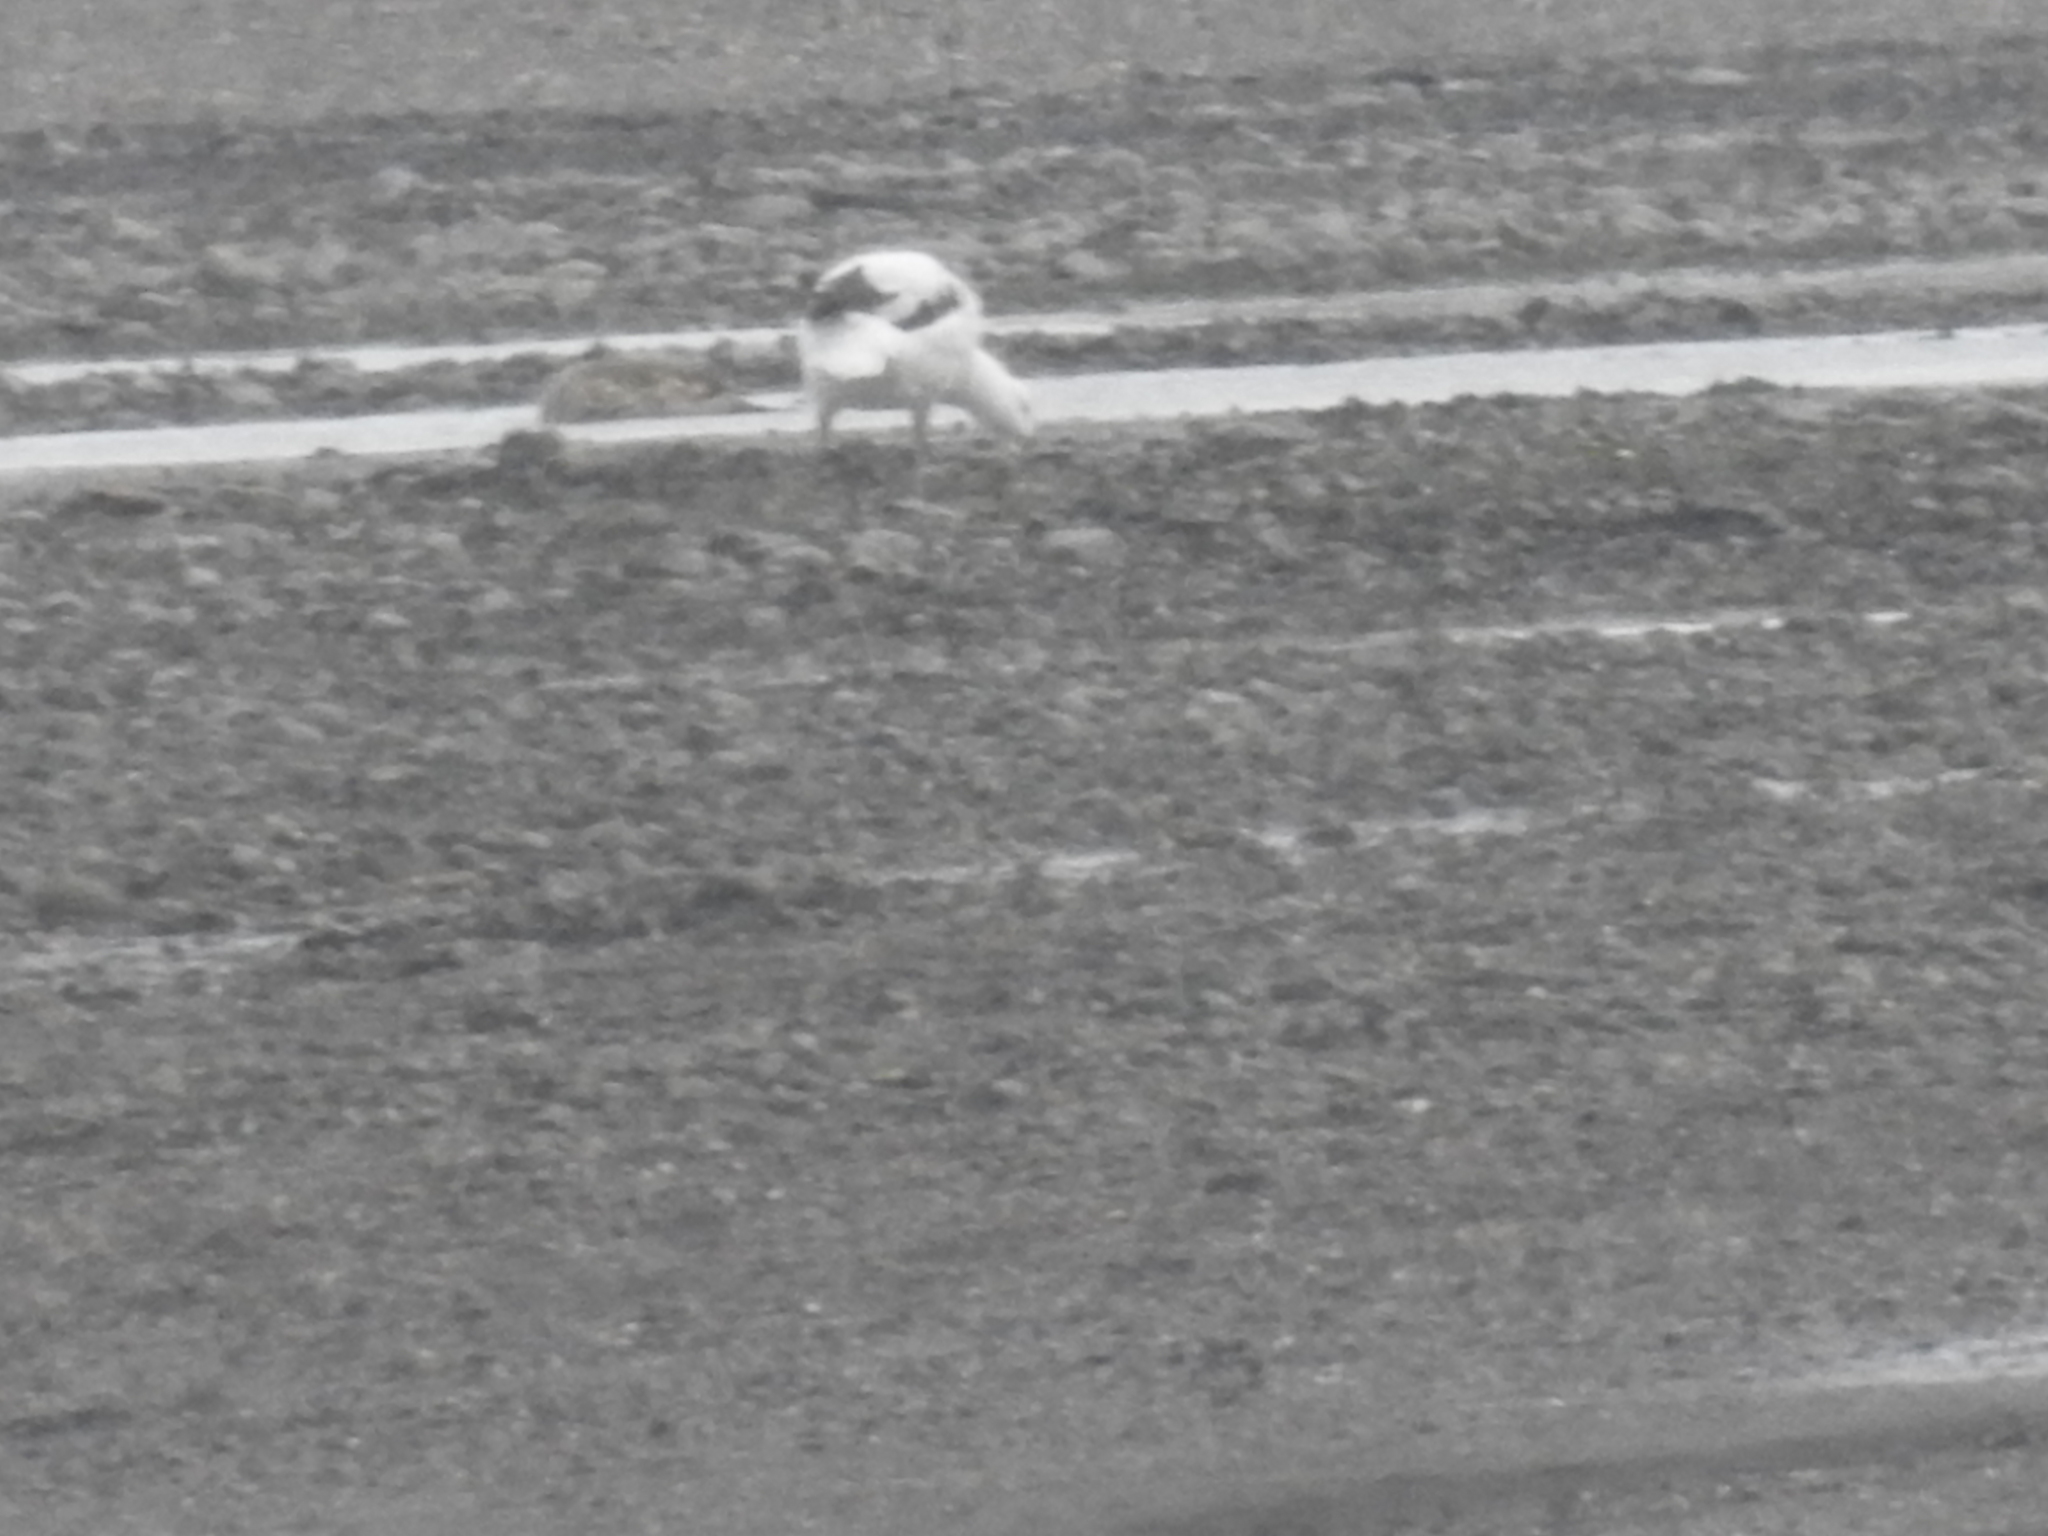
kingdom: Animalia
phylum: Chordata
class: Aves
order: Anseriformes
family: Anatidae
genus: Chloephaga
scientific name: Chloephaga hybrida
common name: Kelp goose
